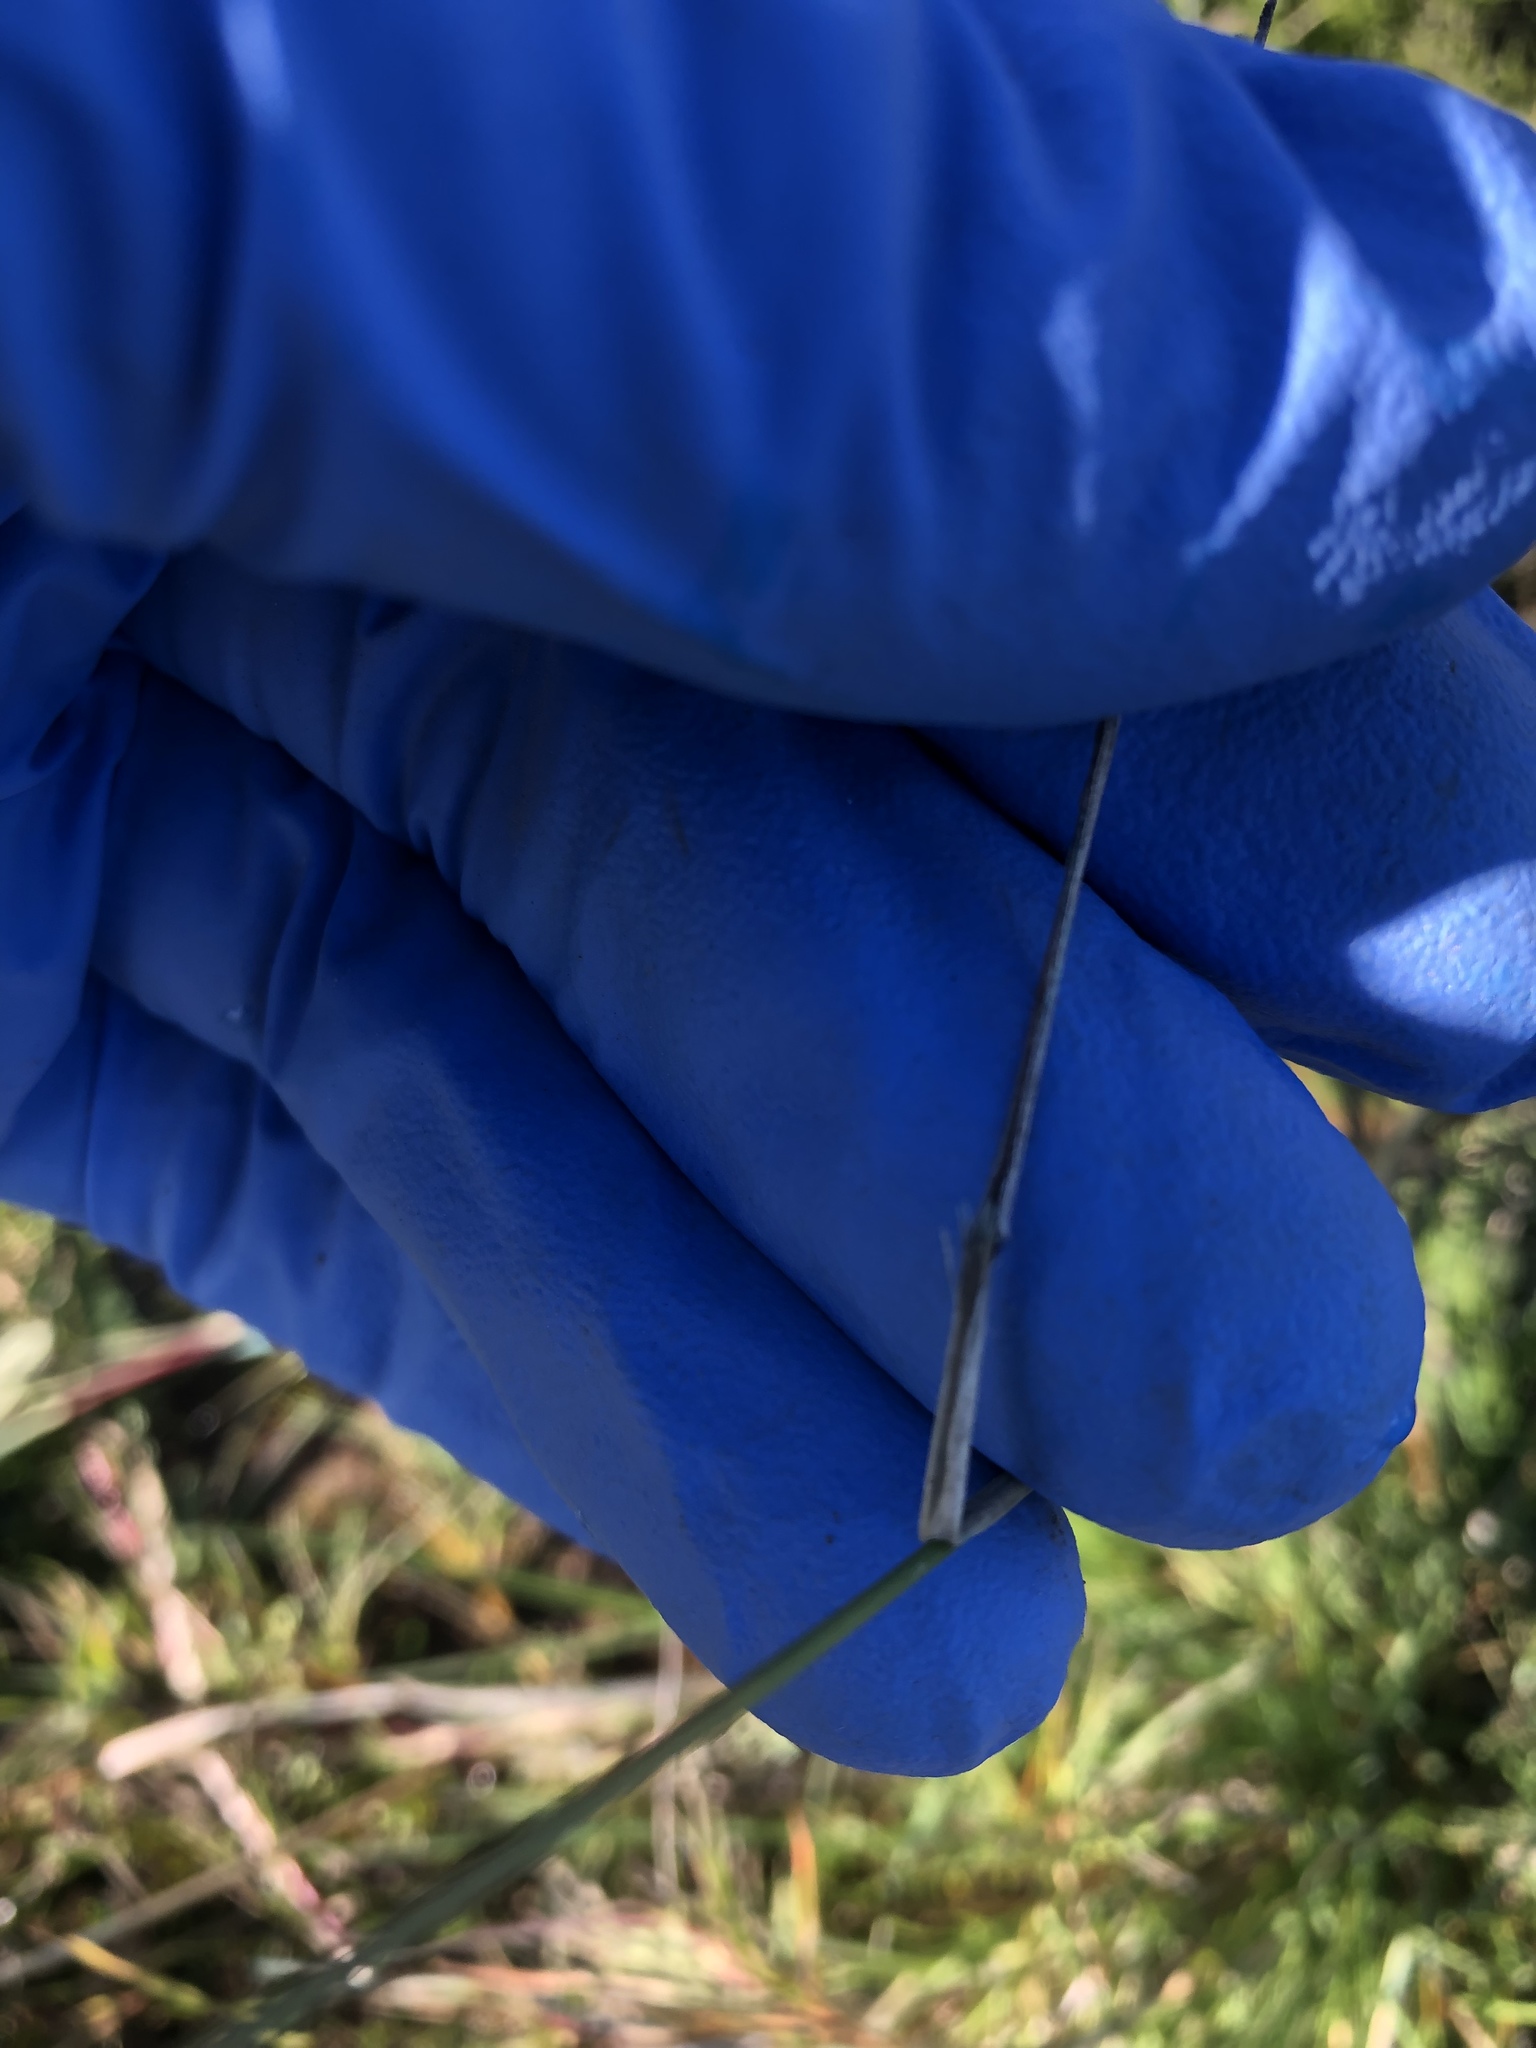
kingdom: Plantae
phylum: Tracheophyta
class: Liliopsida
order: Poales
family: Poaceae
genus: Agrostis
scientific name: Agrostis stolonifera
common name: Creeping bentgrass
